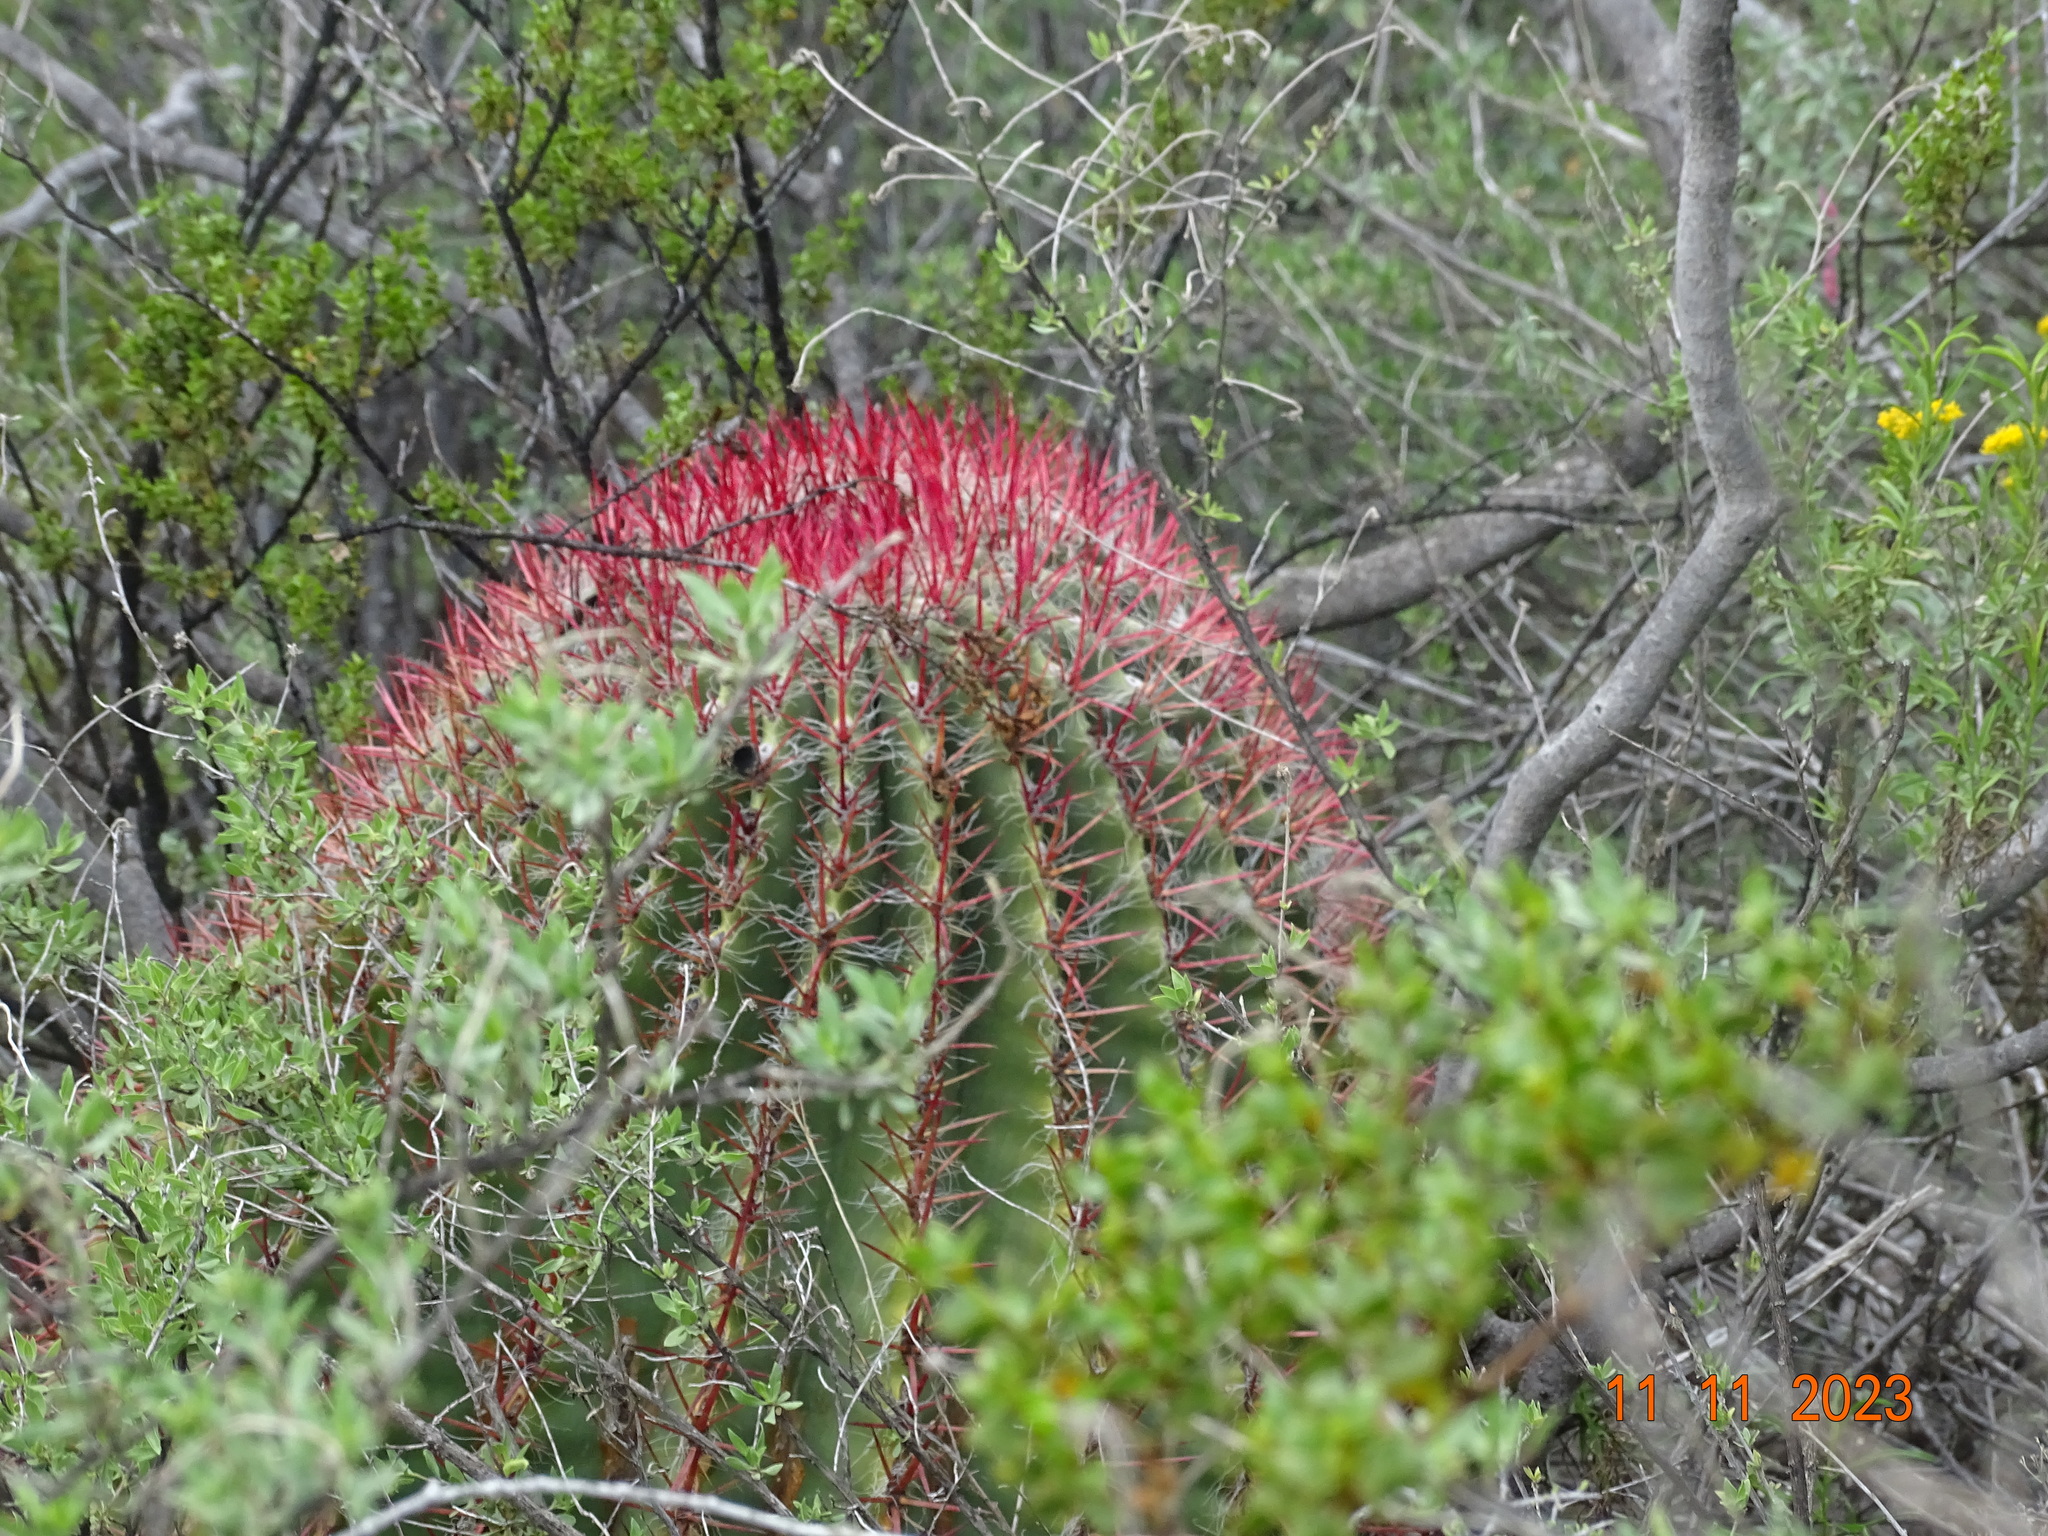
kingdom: Plantae
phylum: Tracheophyta
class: Magnoliopsida
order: Caryophyllales
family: Cactaceae
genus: Ferocactus
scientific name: Ferocactus pilosus
